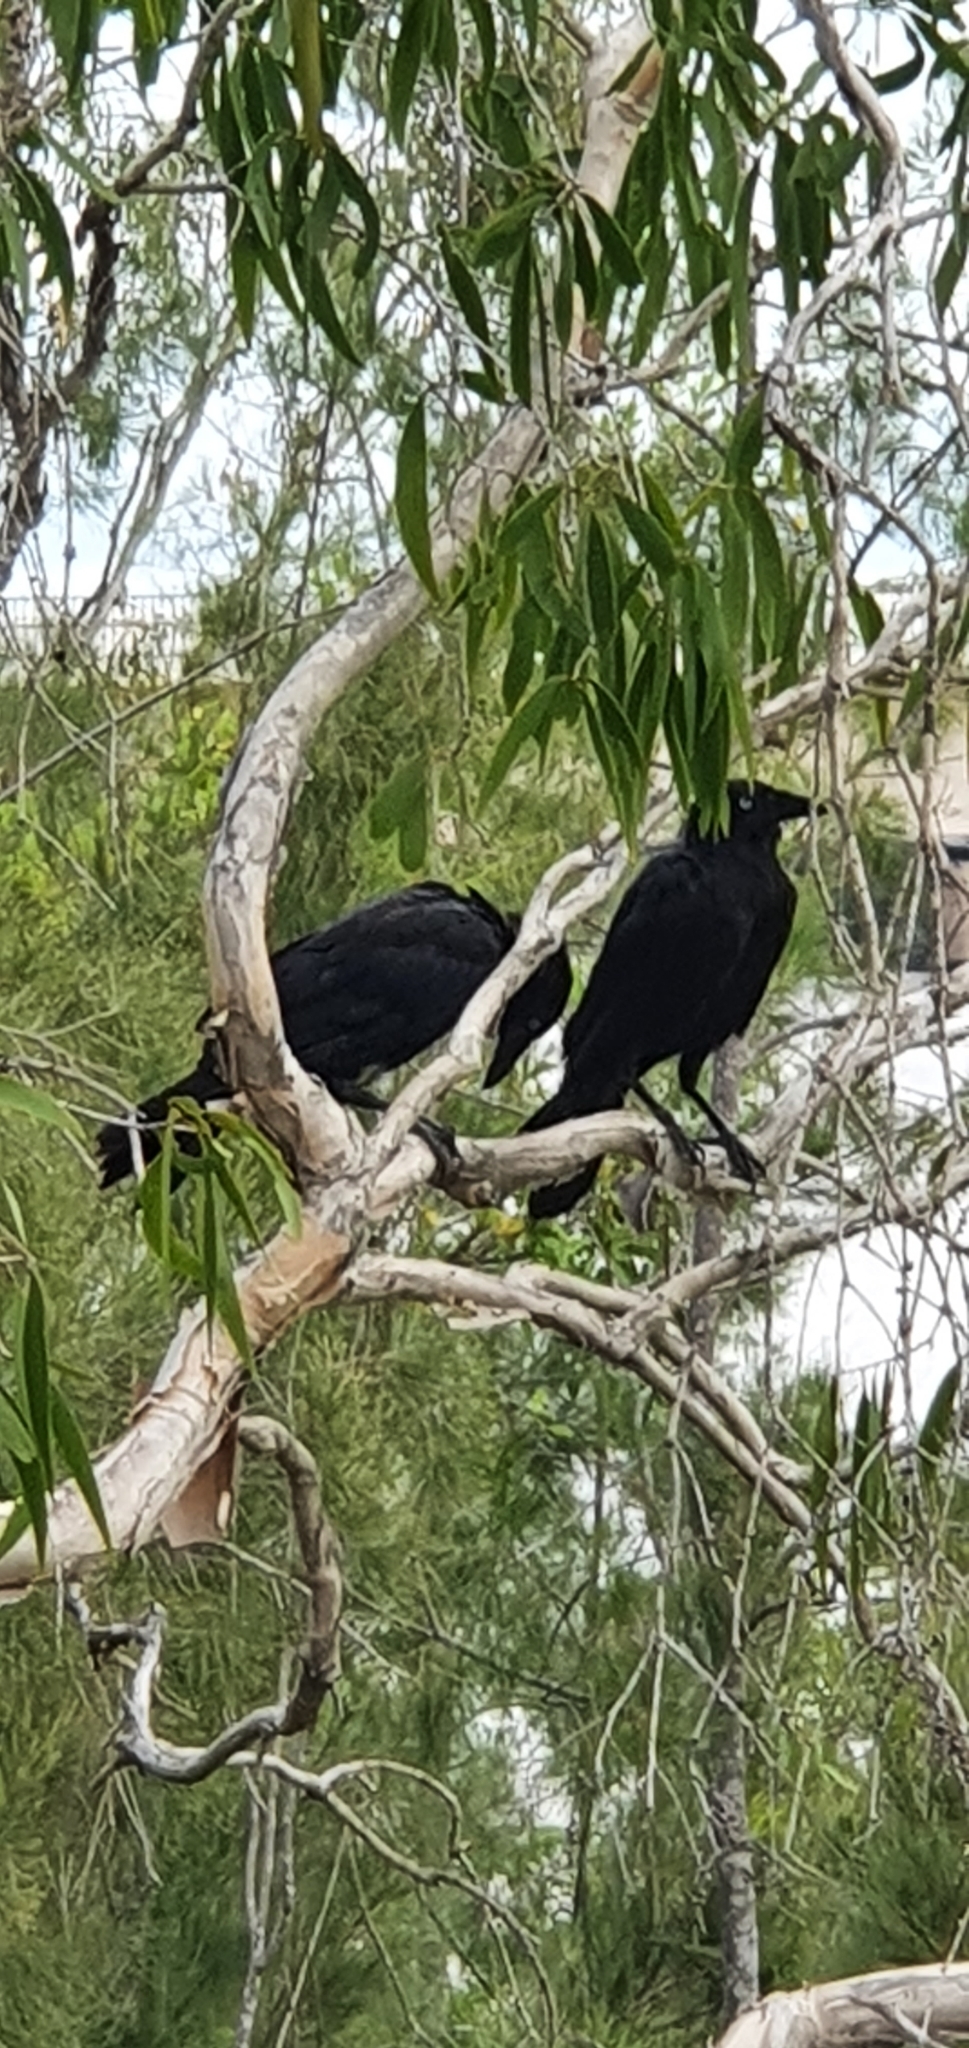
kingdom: Animalia
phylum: Chordata
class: Aves
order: Passeriformes
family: Corvidae
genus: Corvus
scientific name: Corvus orru
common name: Torresian crow
